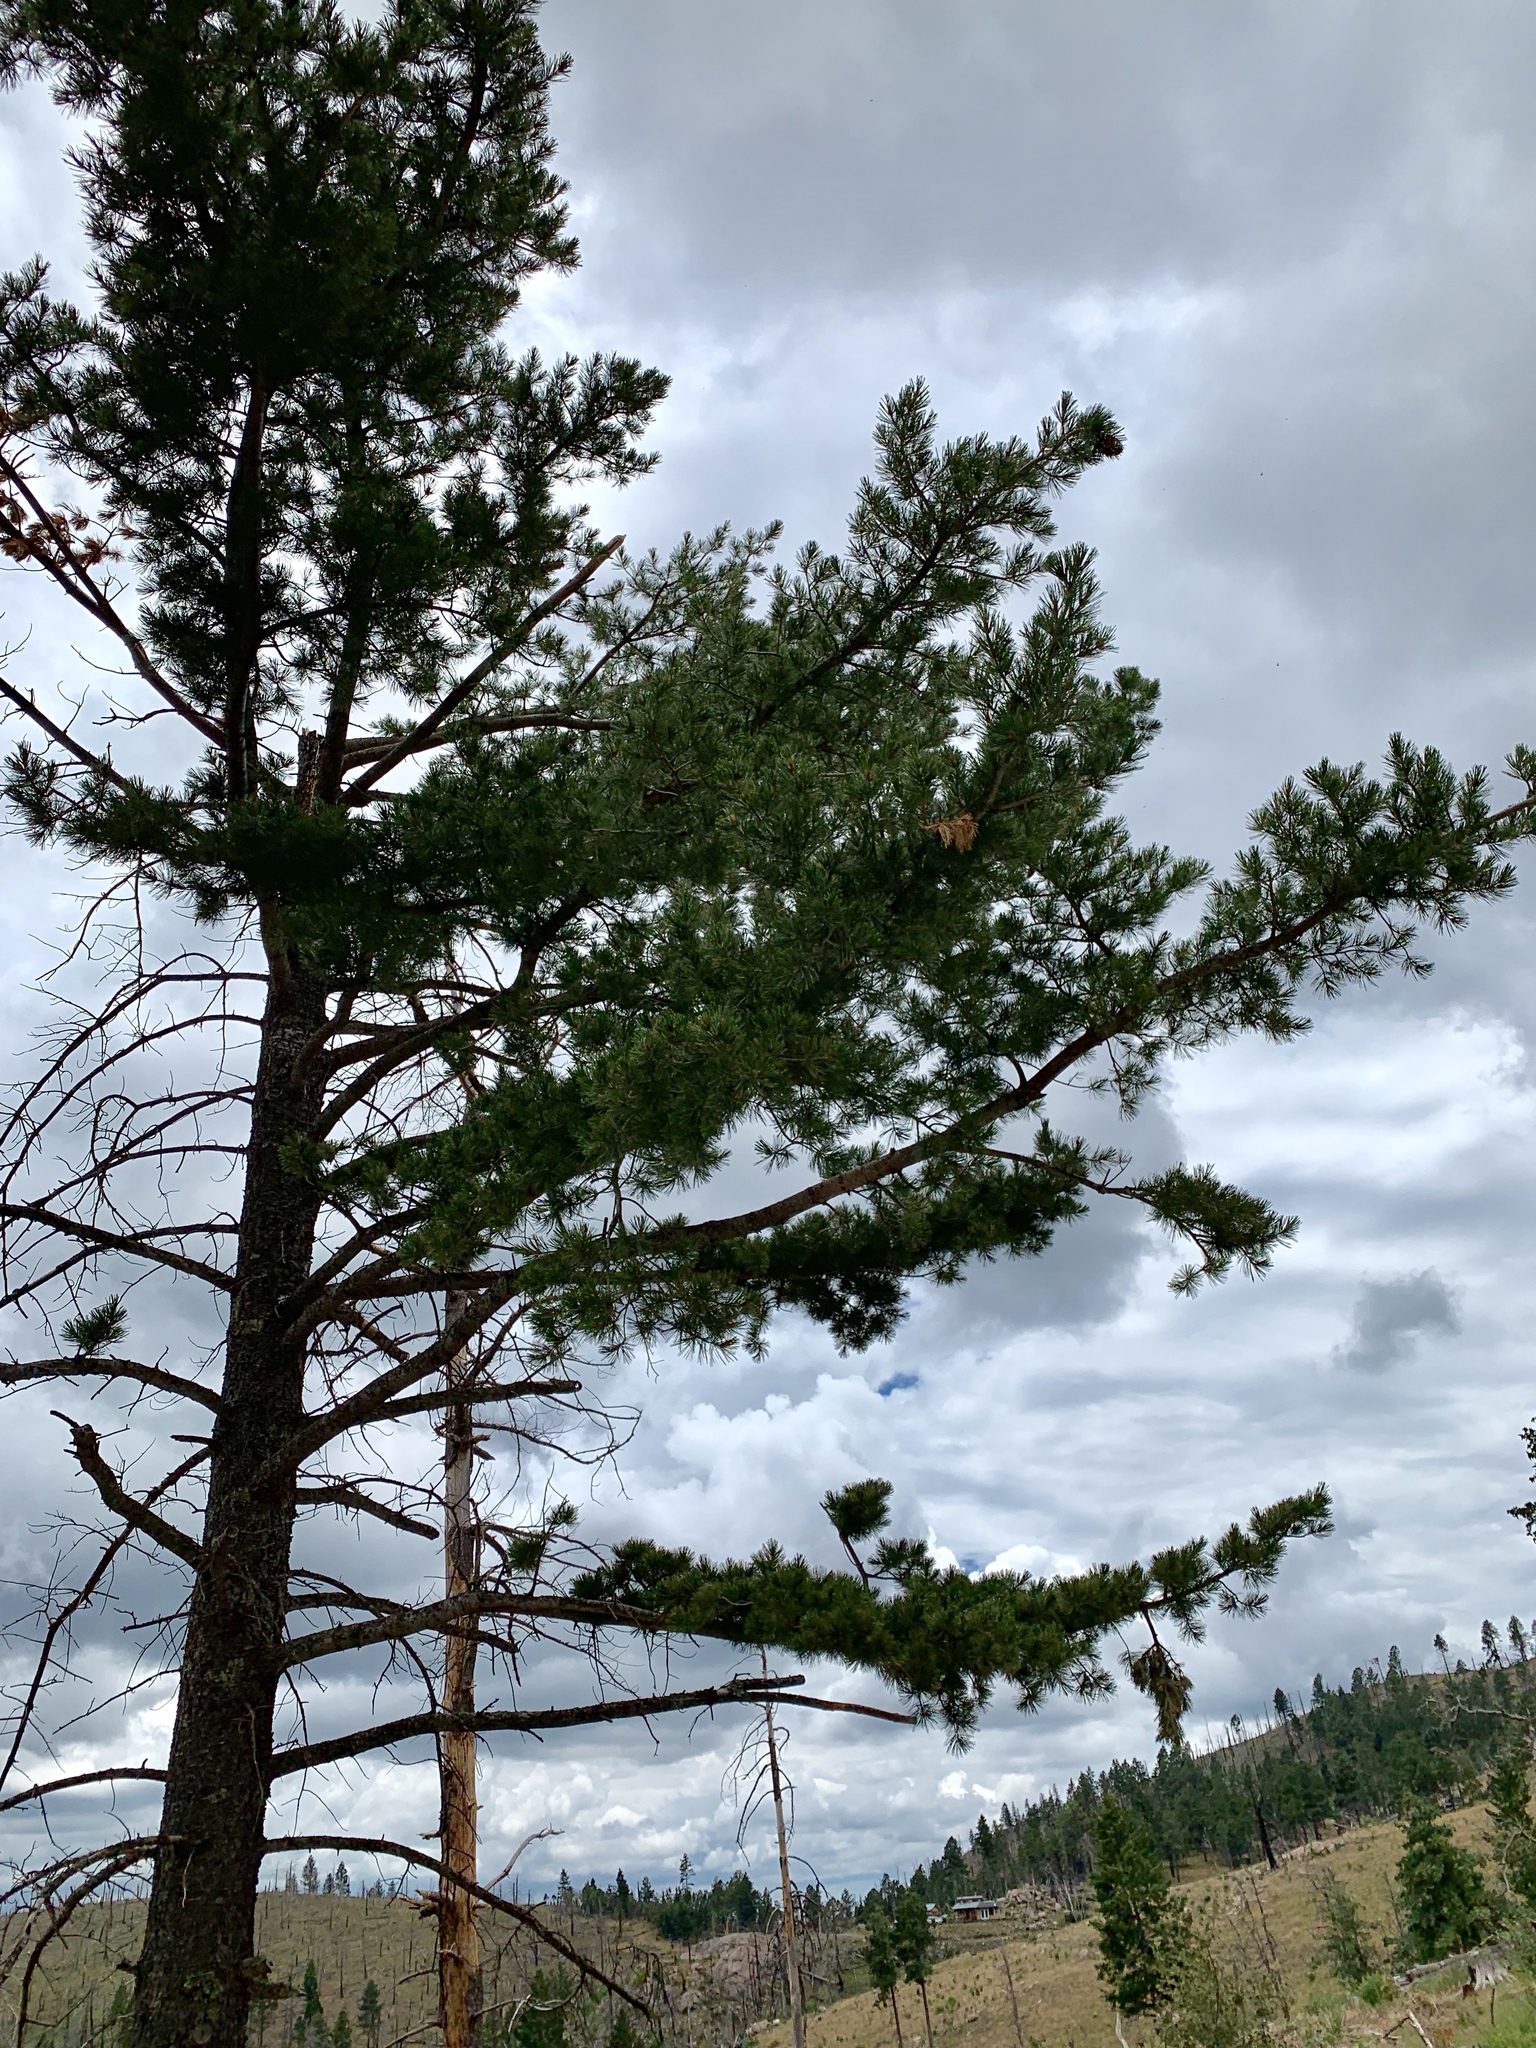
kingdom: Plantae
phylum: Tracheophyta
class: Pinopsida
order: Pinales
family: Pinaceae
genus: Pinus
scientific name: Pinus strobiformis
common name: Southwestern white pine
